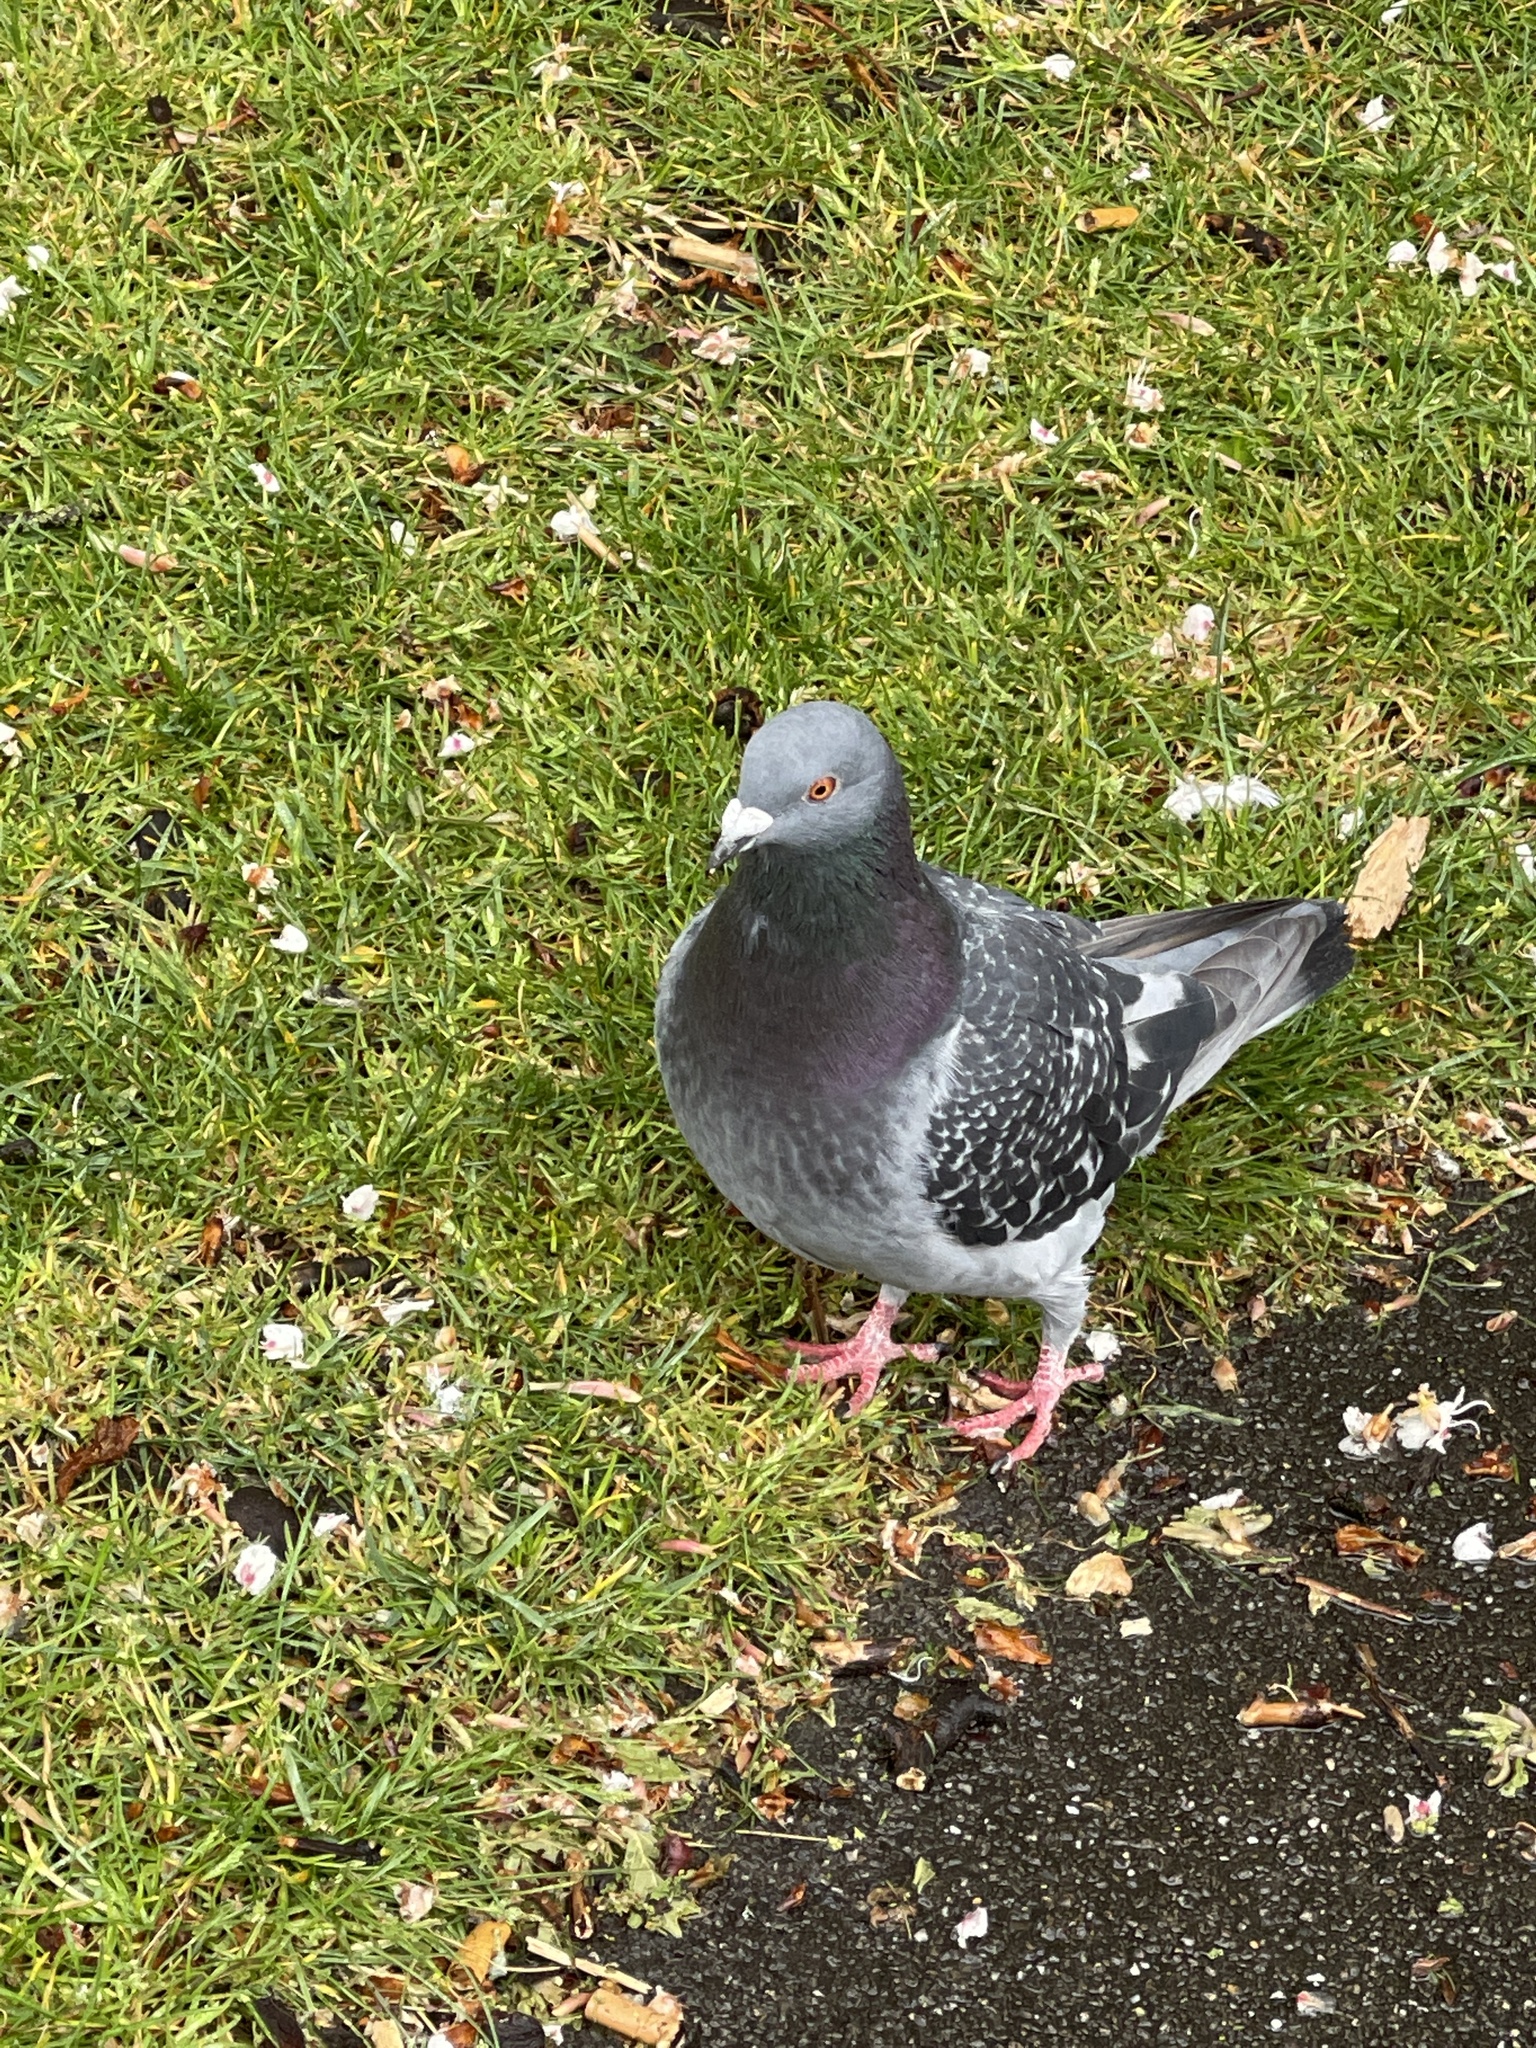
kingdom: Animalia
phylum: Chordata
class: Aves
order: Columbiformes
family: Columbidae
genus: Columba
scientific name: Columba livia
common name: Rock pigeon
